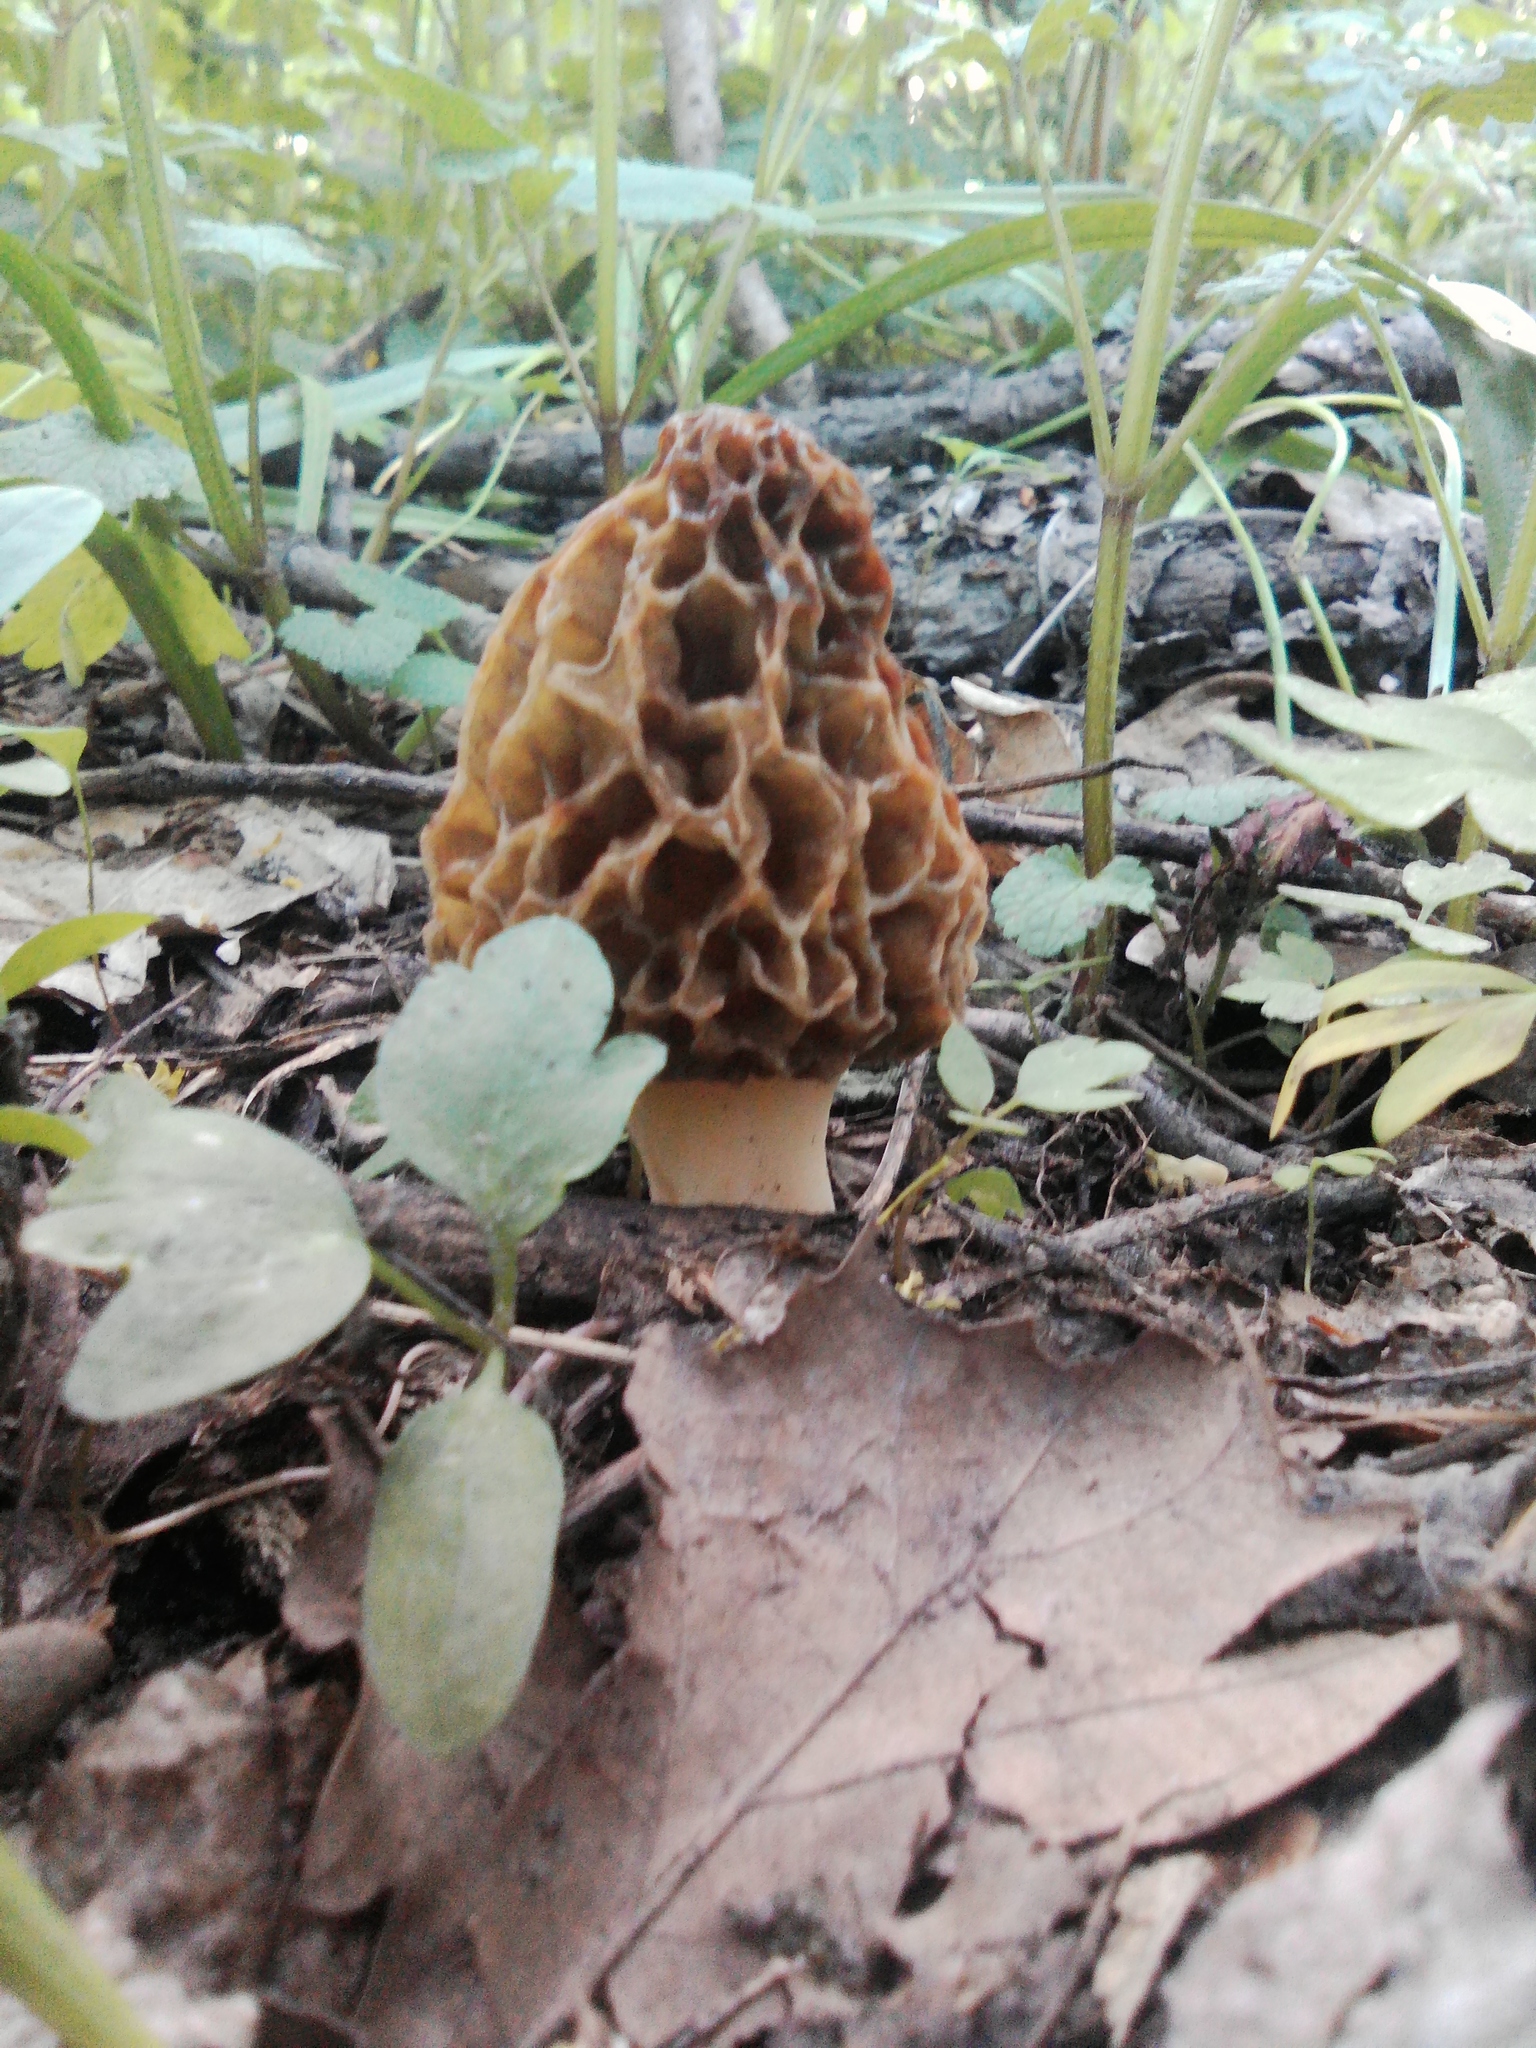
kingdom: Fungi
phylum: Ascomycota
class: Pezizomycetes
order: Pezizales
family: Morchellaceae
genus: Morchella
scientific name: Morchella esculenta
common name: Morel
